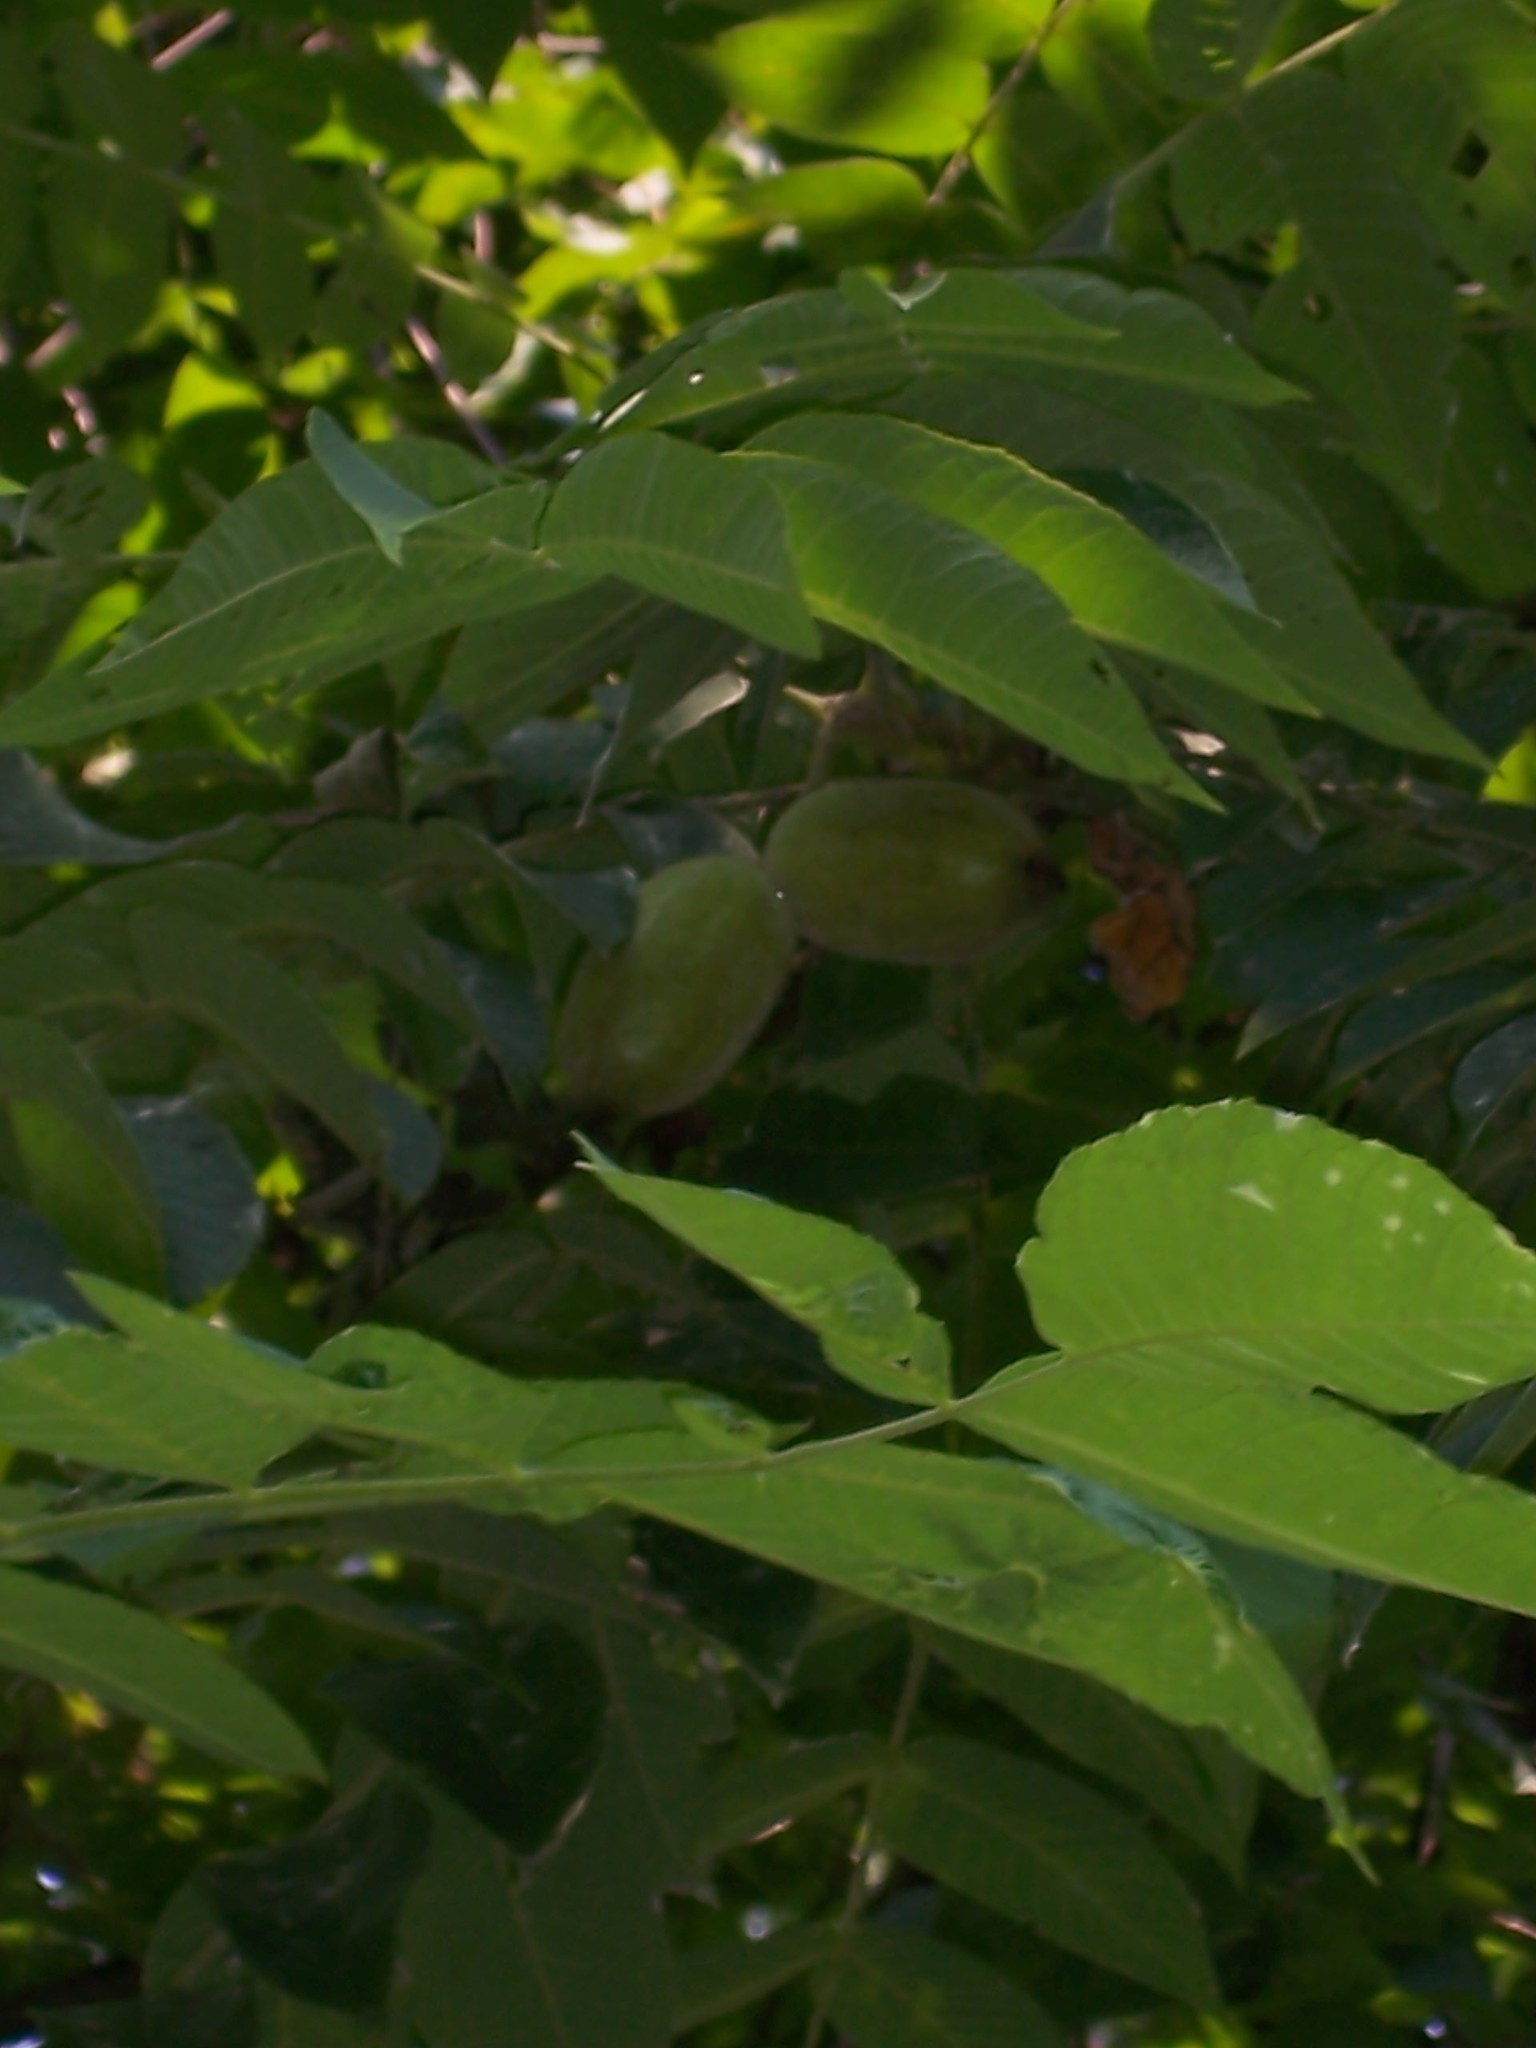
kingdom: Plantae
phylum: Tracheophyta
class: Magnoliopsida
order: Fagales
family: Juglandaceae
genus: Juglans
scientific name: Juglans cinerea
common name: Butternut
